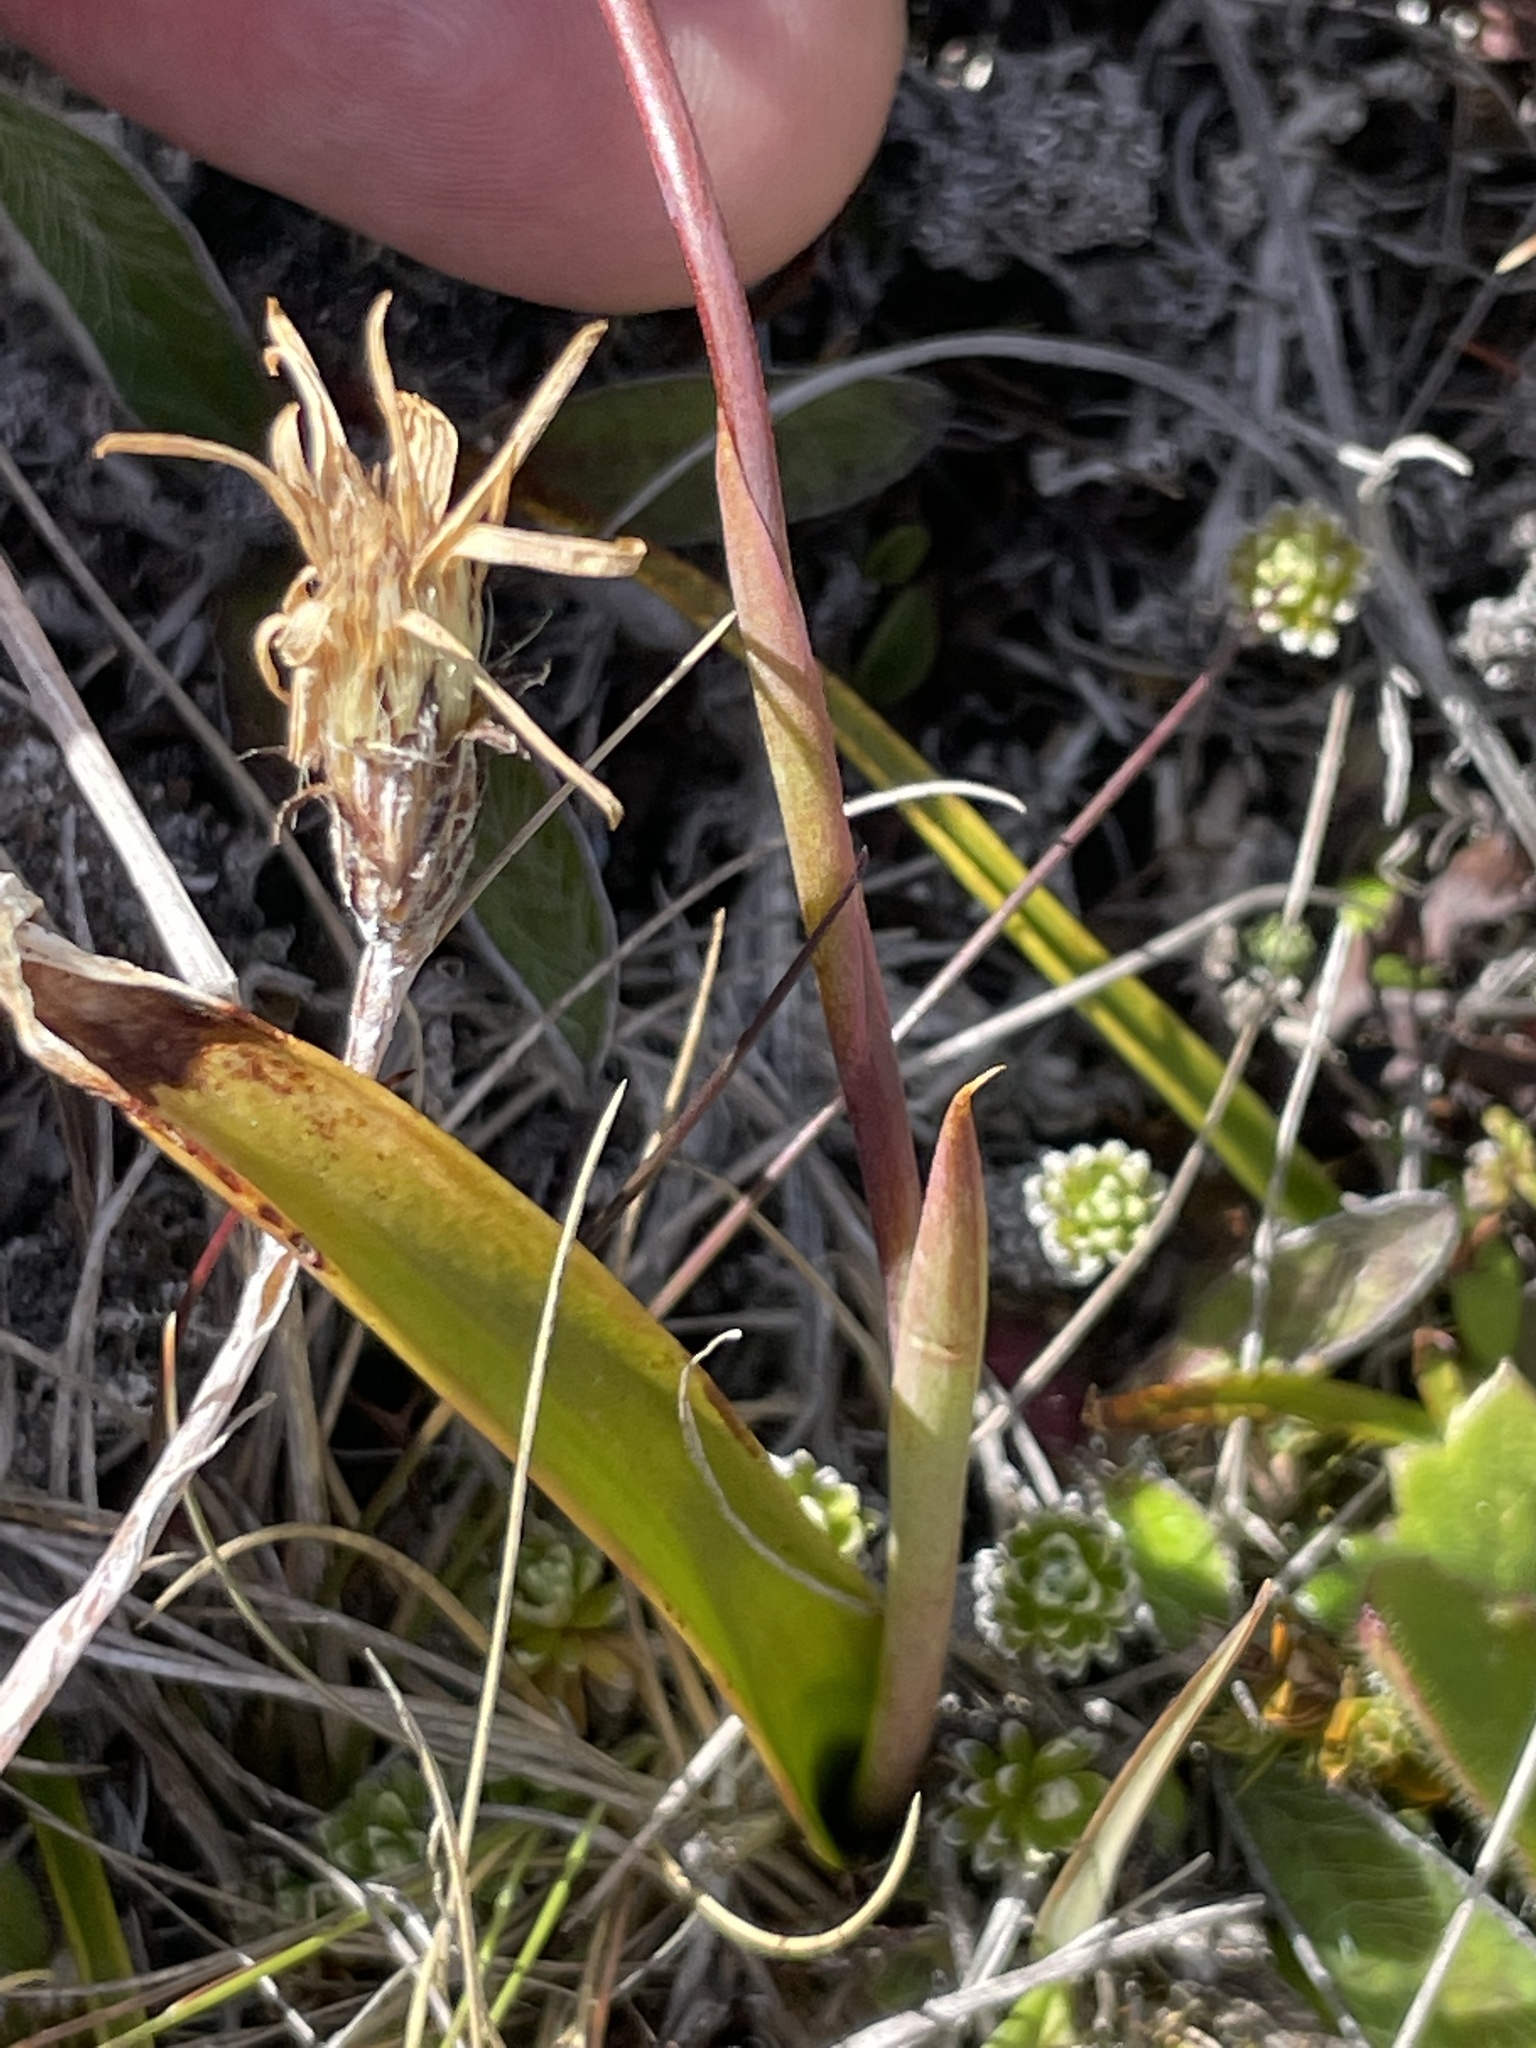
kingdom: Plantae
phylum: Tracheophyta
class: Liliopsida
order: Asparagales
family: Orchidaceae
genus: Thelymitra
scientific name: Thelymitra longifolia
